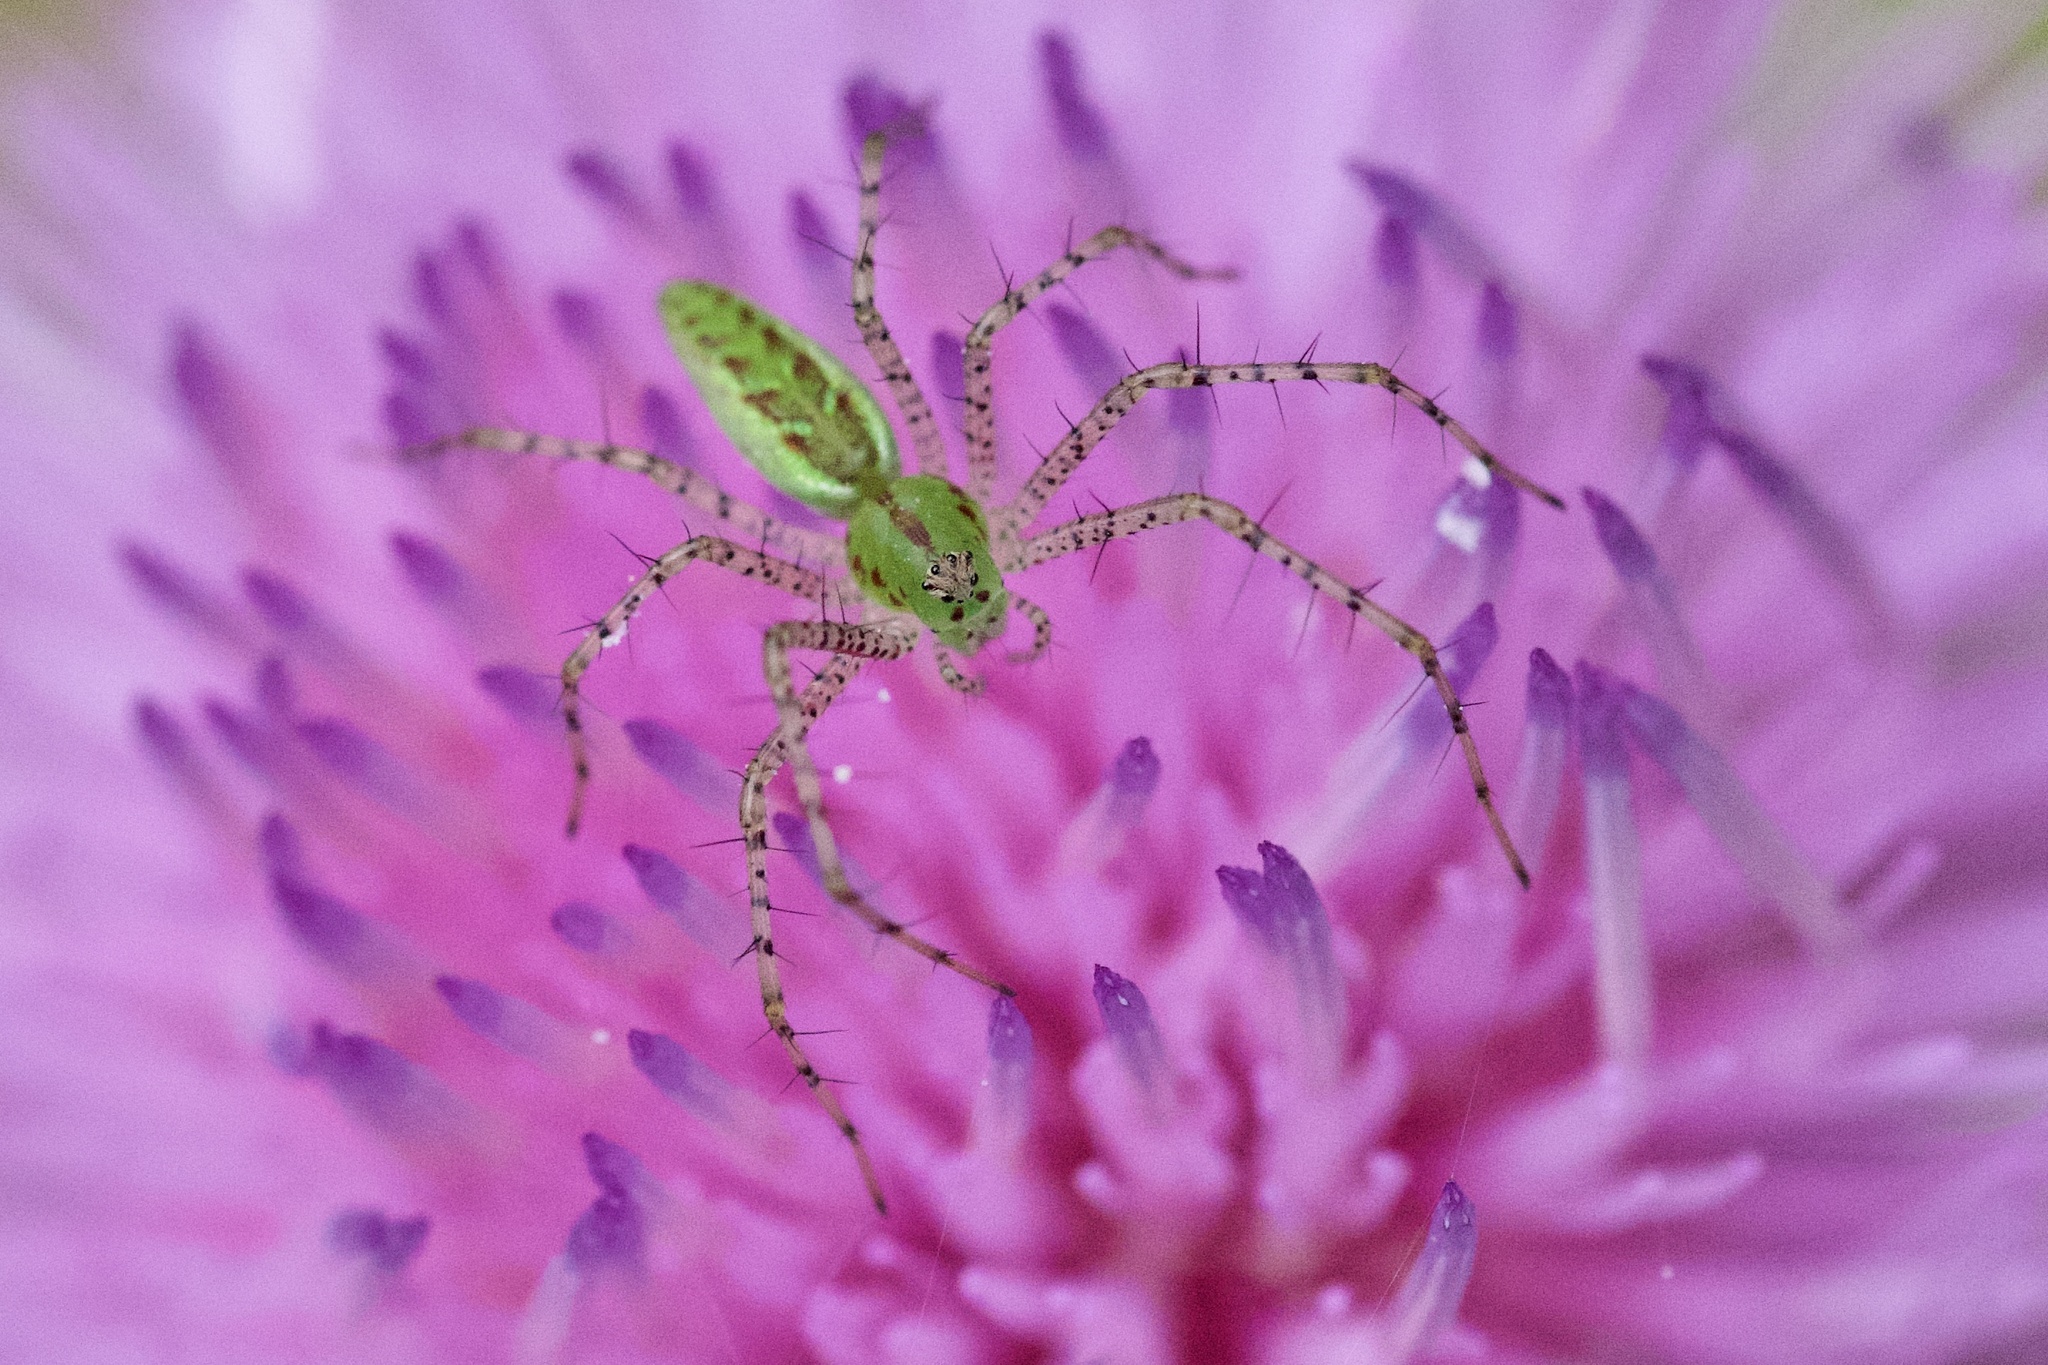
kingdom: Animalia
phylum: Arthropoda
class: Arachnida
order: Araneae
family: Oxyopidae
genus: Peucetia
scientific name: Peucetia viridans
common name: Lynx spiders
